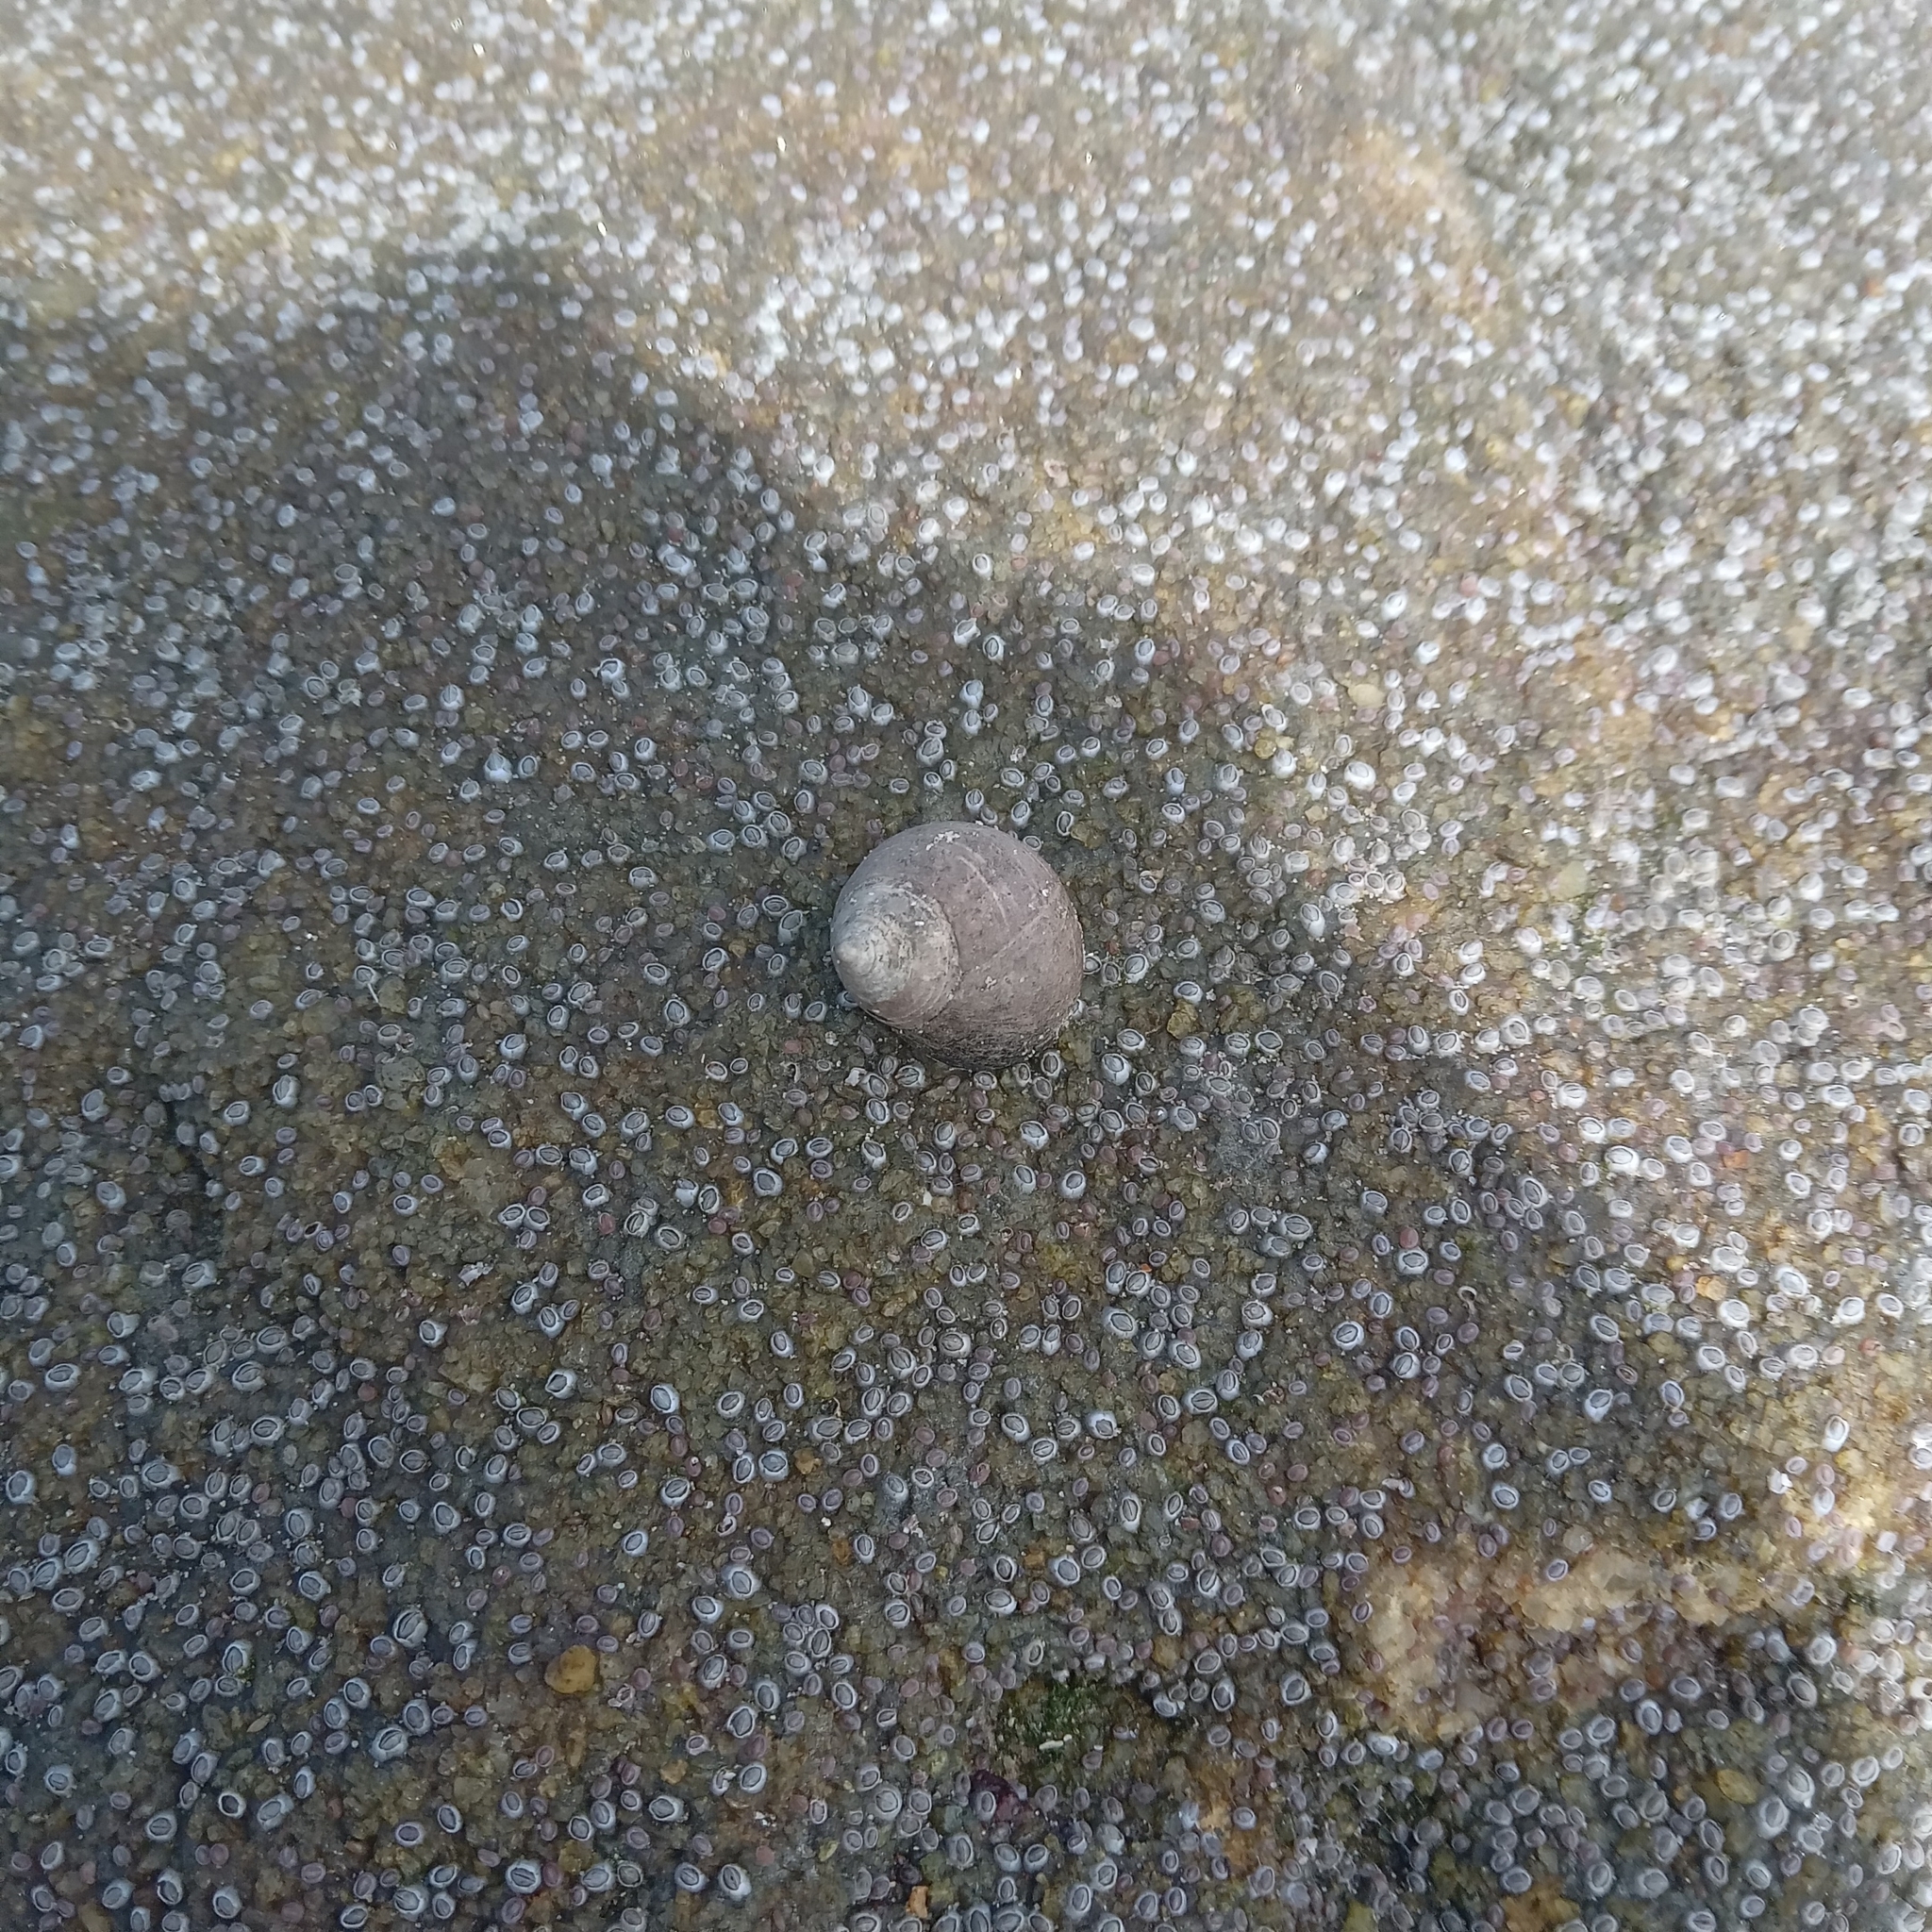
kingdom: Animalia
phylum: Mollusca
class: Gastropoda
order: Littorinimorpha
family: Littorinidae
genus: Littorina
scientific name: Littorina littorea
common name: Common periwinkle
